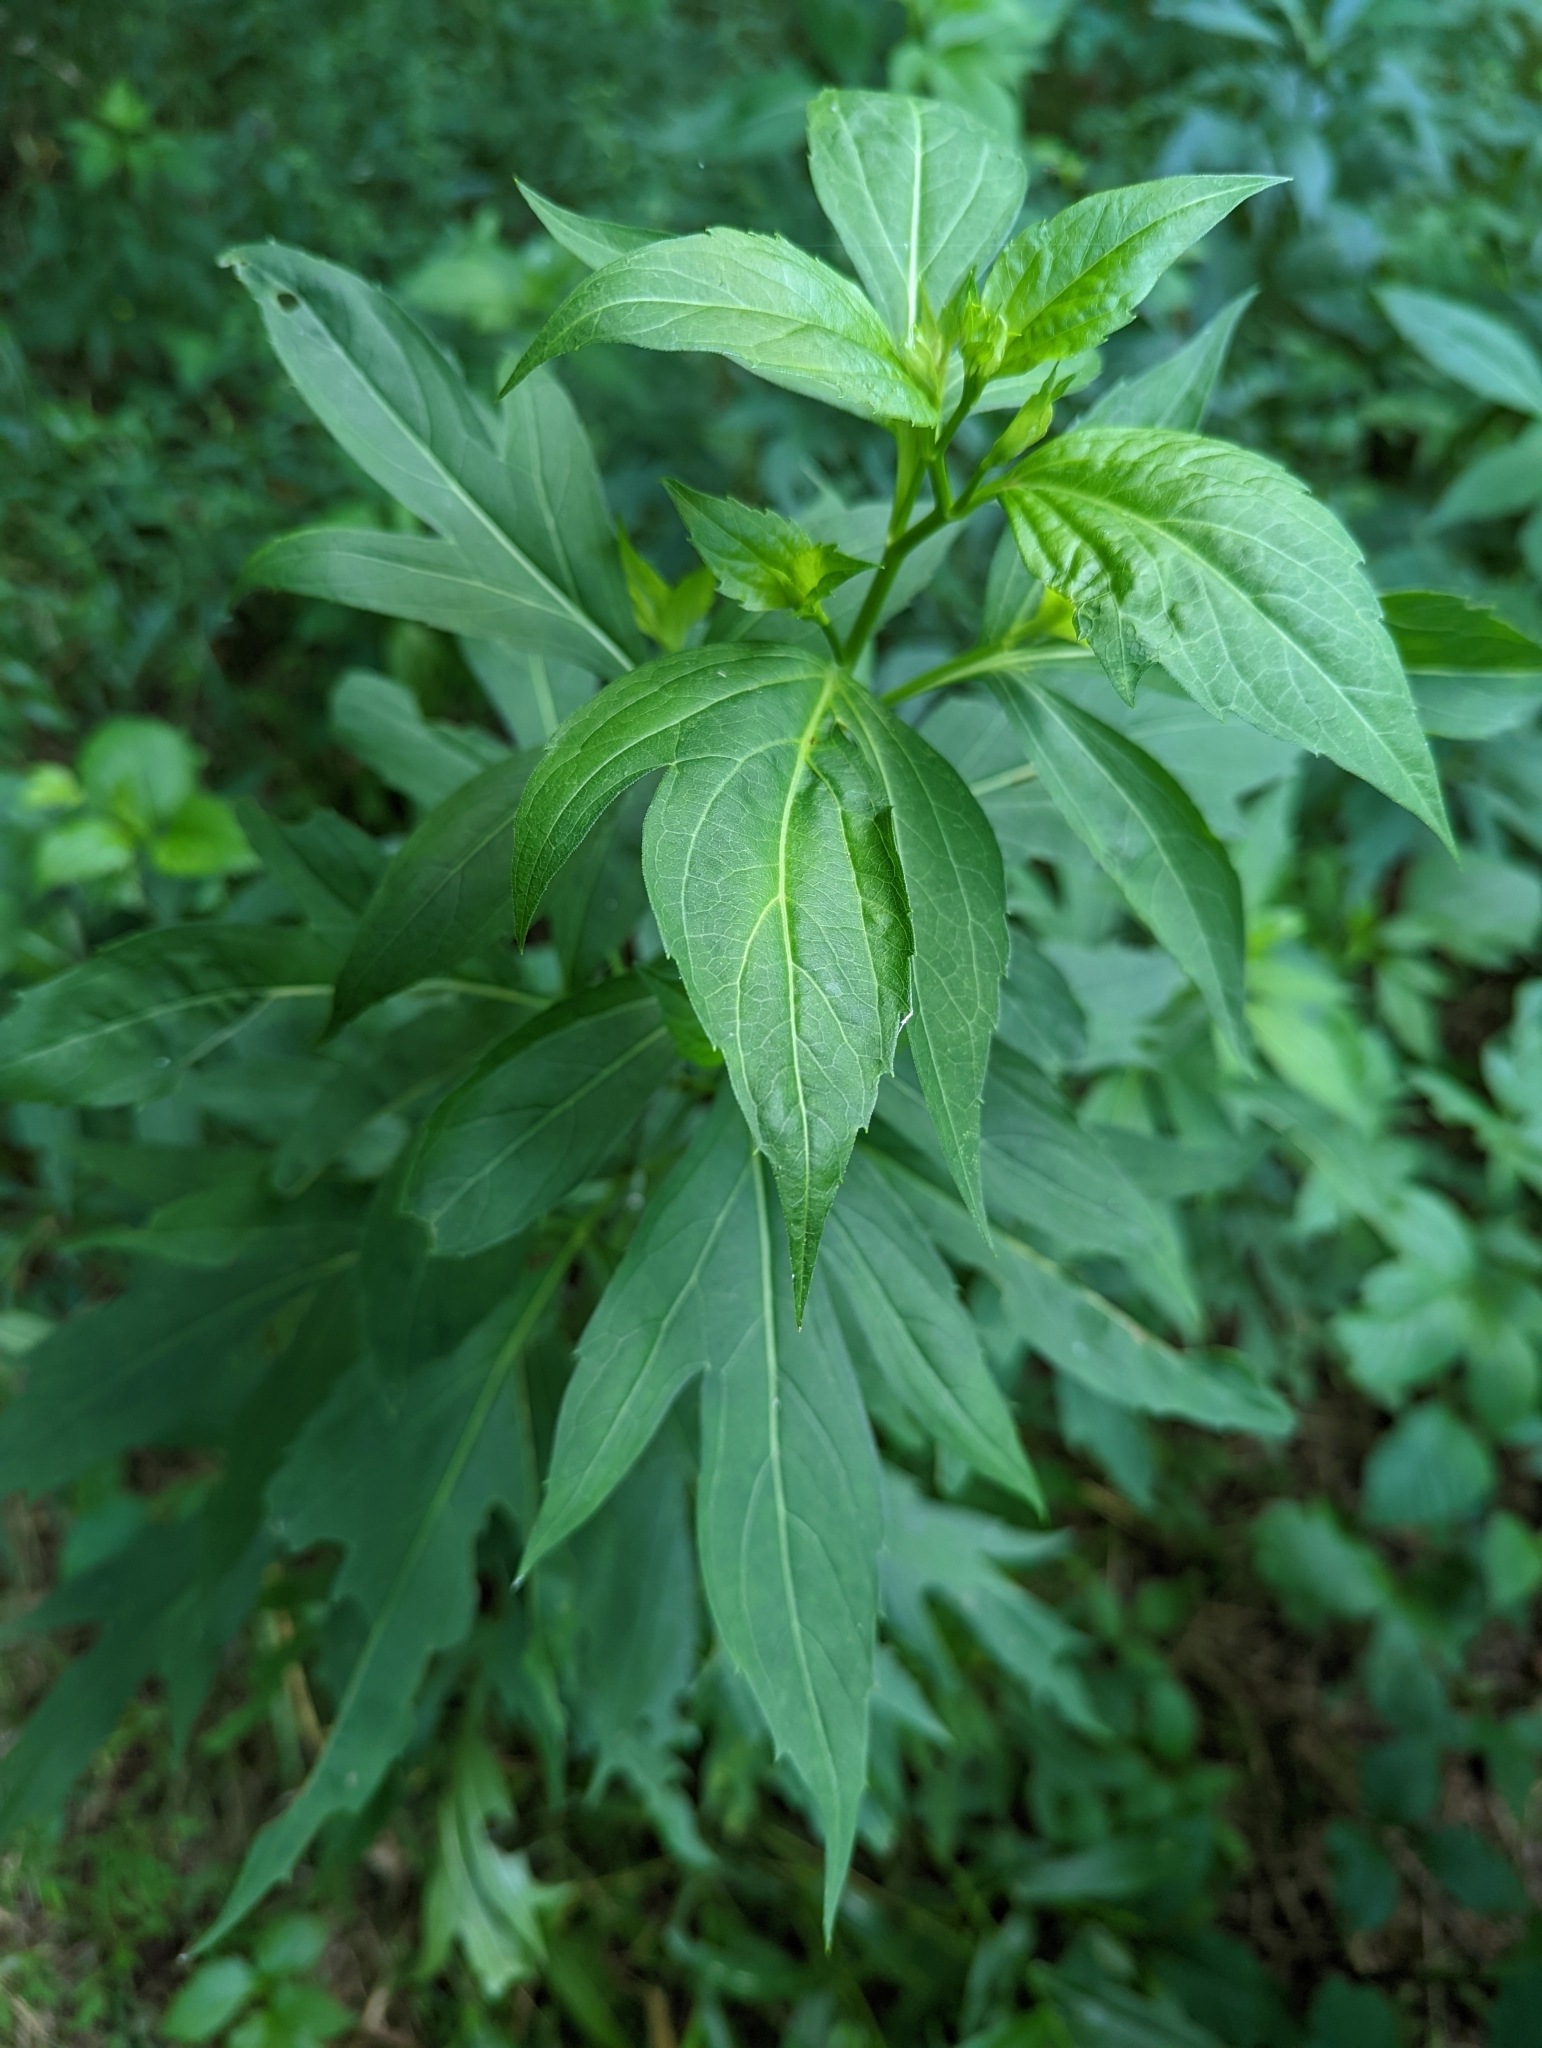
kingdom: Plantae
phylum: Tracheophyta
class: Magnoliopsida
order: Asterales
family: Asteraceae
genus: Rudbeckia
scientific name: Rudbeckia laciniata
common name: Coneflower
